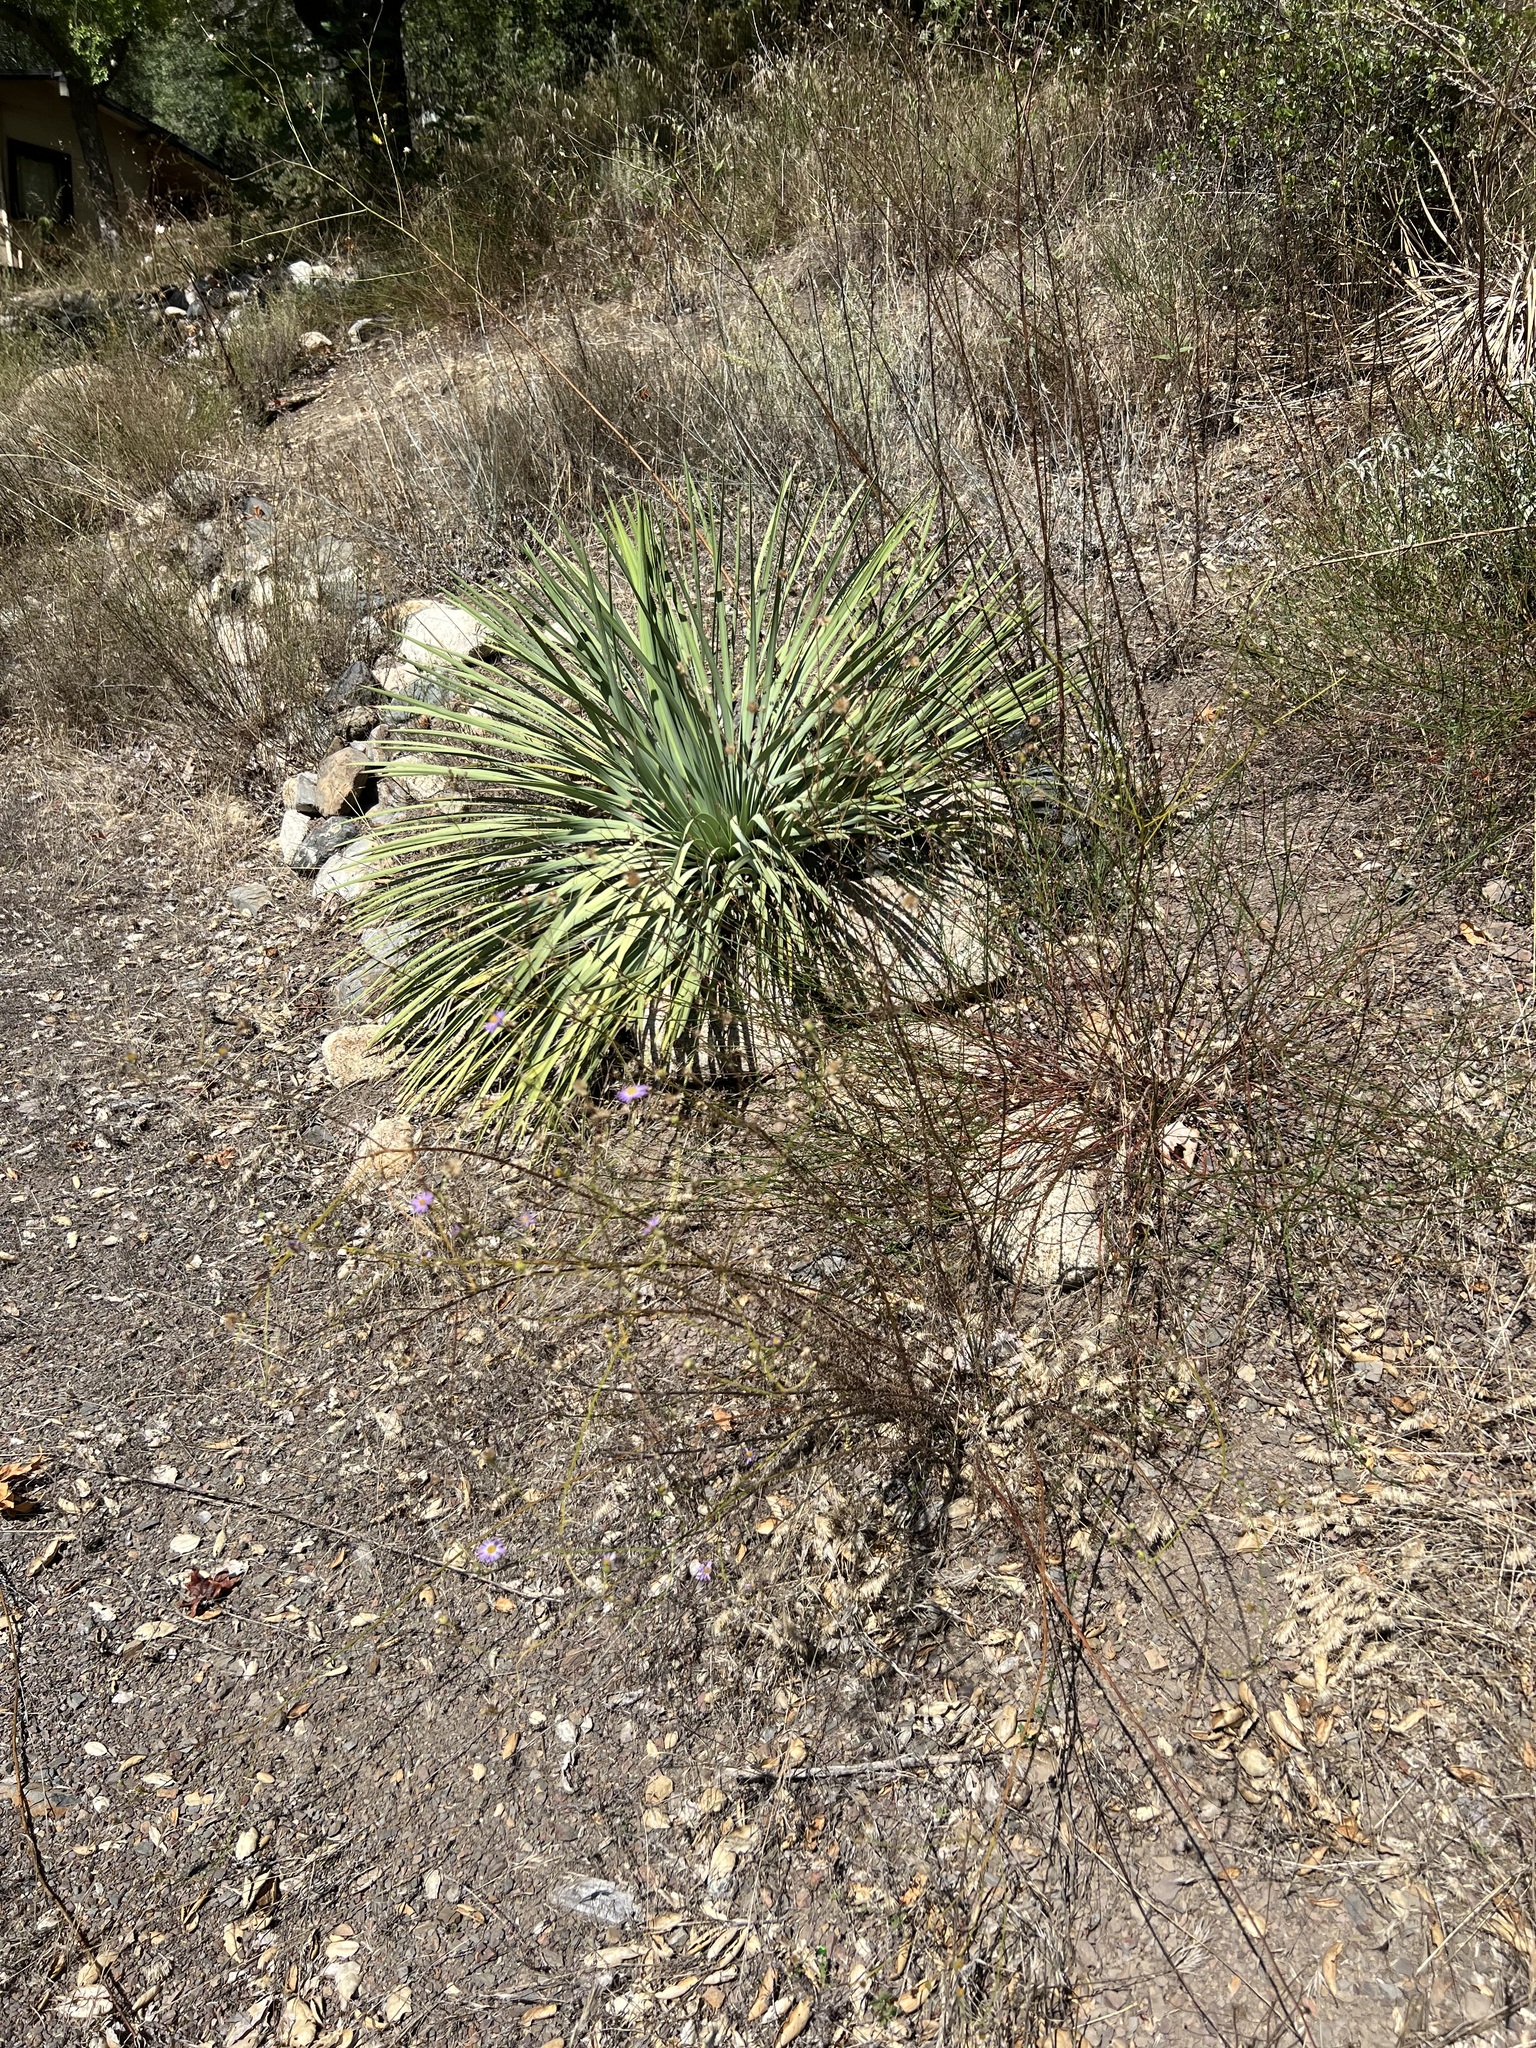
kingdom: Plantae
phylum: Tracheophyta
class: Magnoliopsida
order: Asterales
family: Asteraceae
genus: Erigeron
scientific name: Erigeron foliosus
